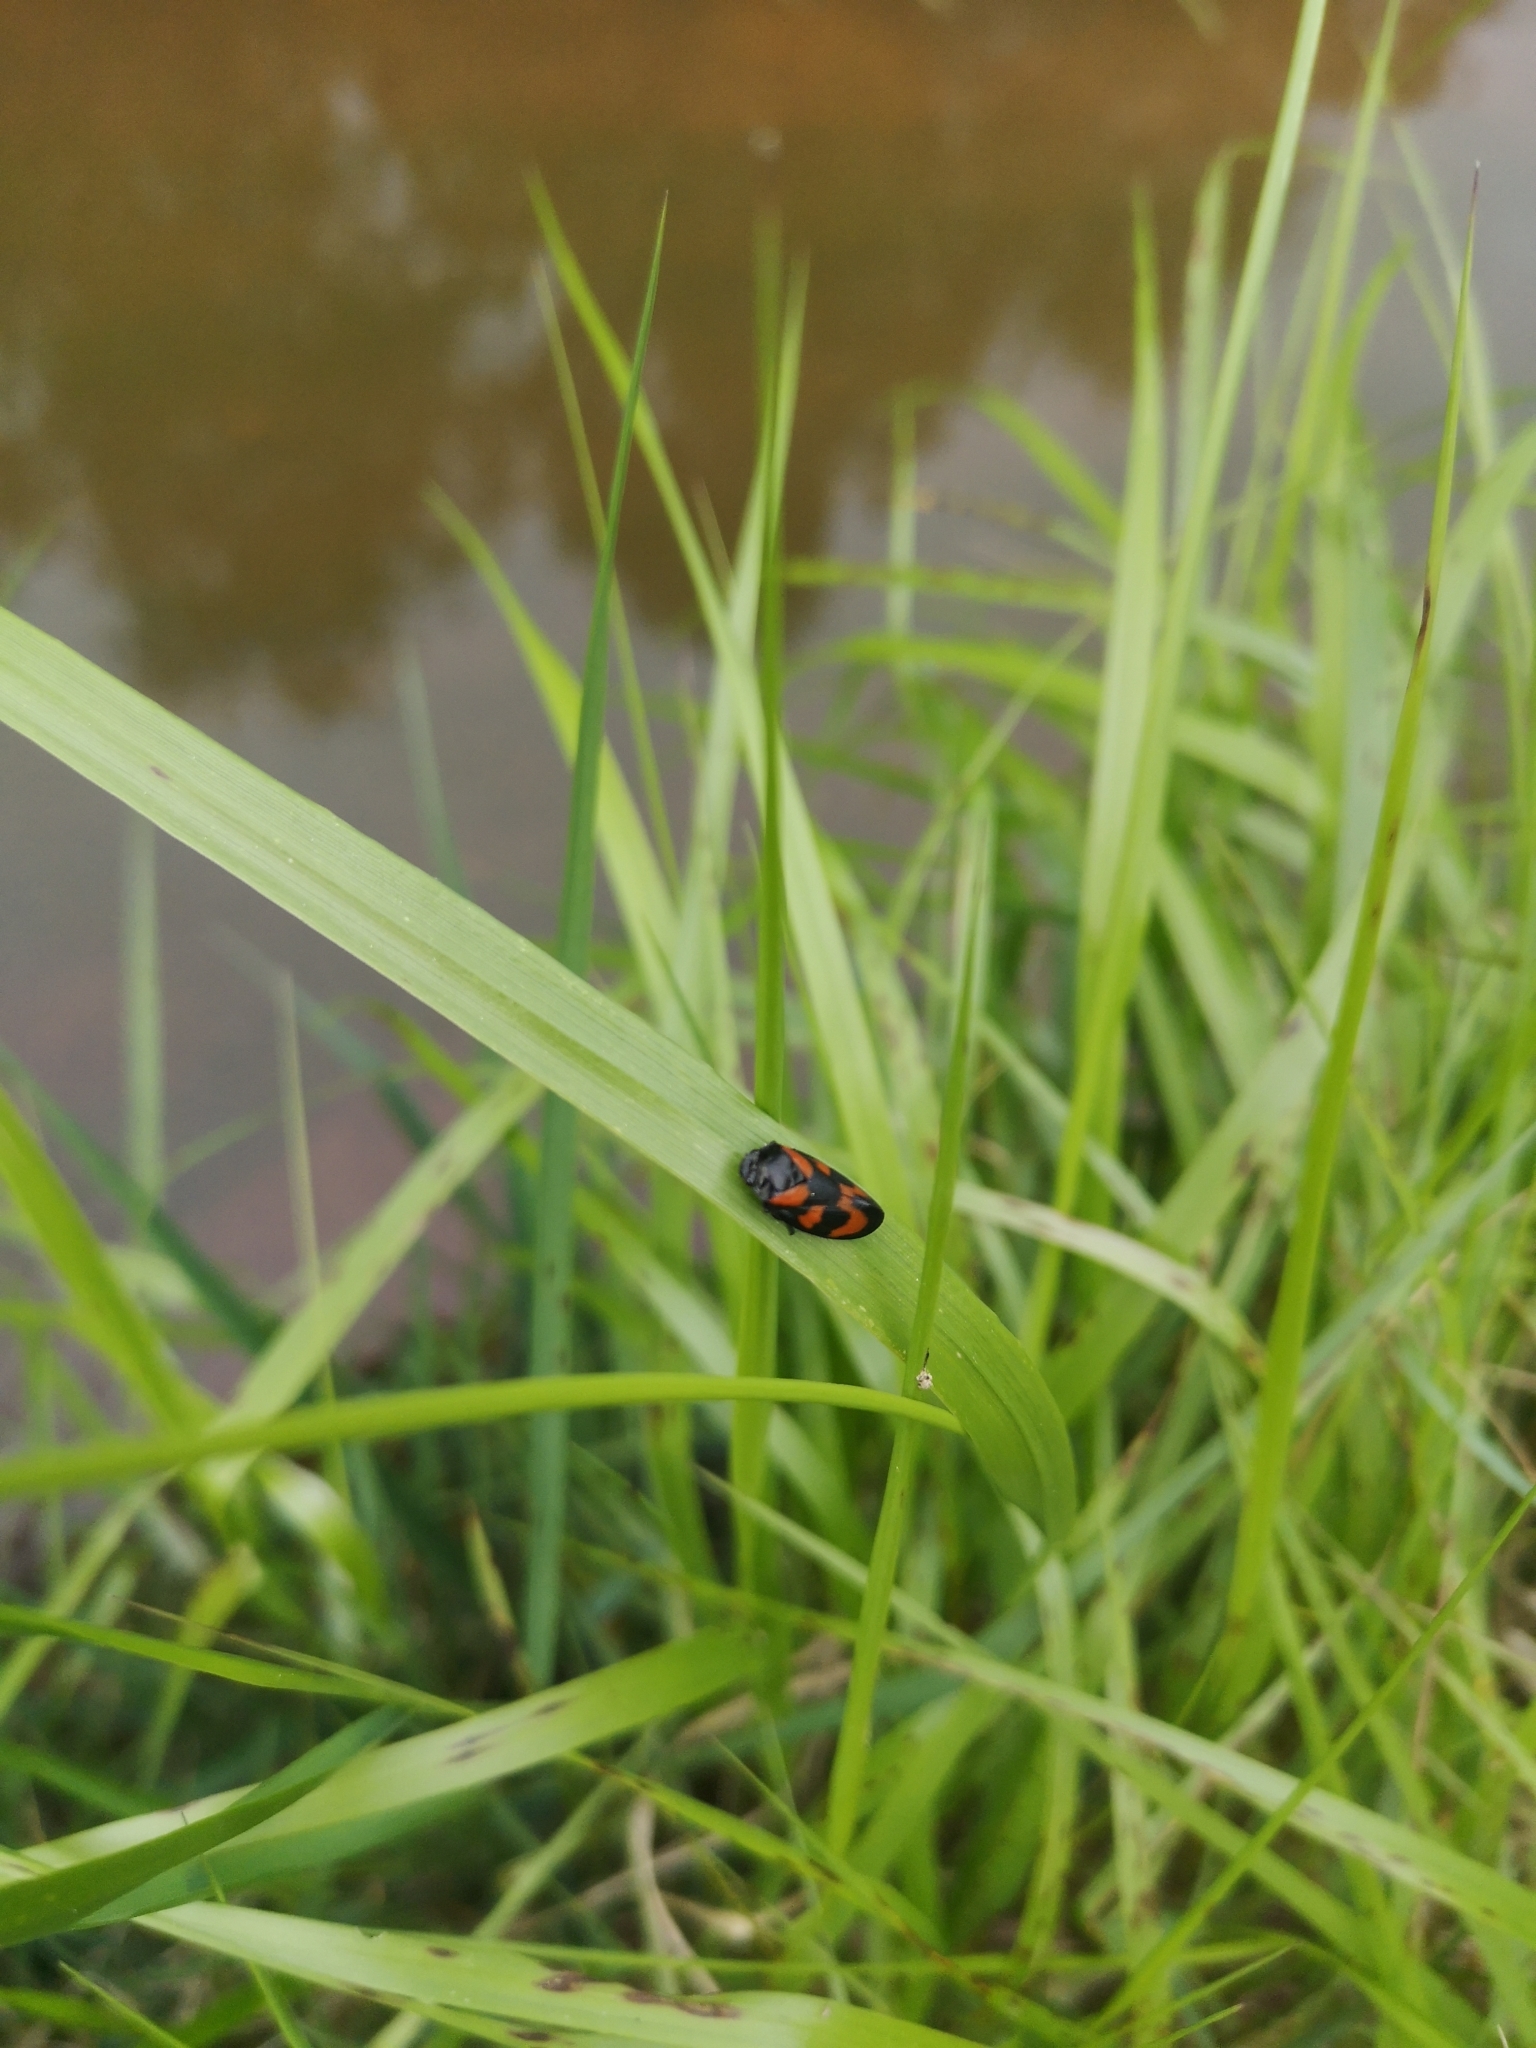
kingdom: Animalia
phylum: Arthropoda
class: Insecta
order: Hemiptera
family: Cercopidae
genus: Cercopis
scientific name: Cercopis vulnerata
